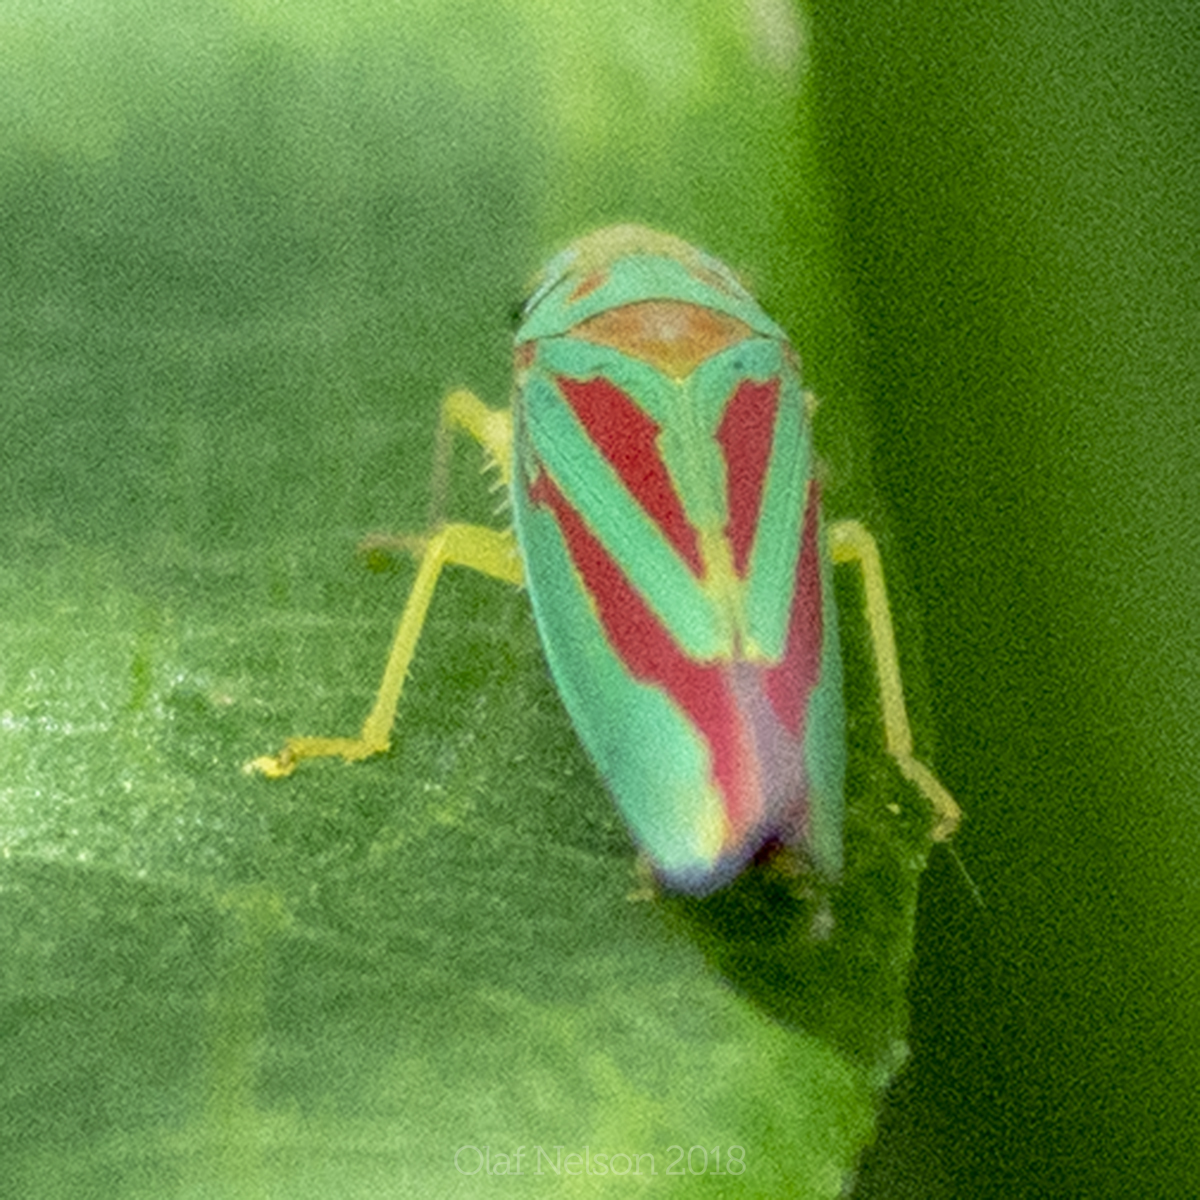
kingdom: Animalia
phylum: Arthropoda
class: Insecta
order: Hemiptera
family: Cicadellidae
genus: Graphocephala
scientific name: Graphocephala fennahi
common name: Rhododendron leafhopper
